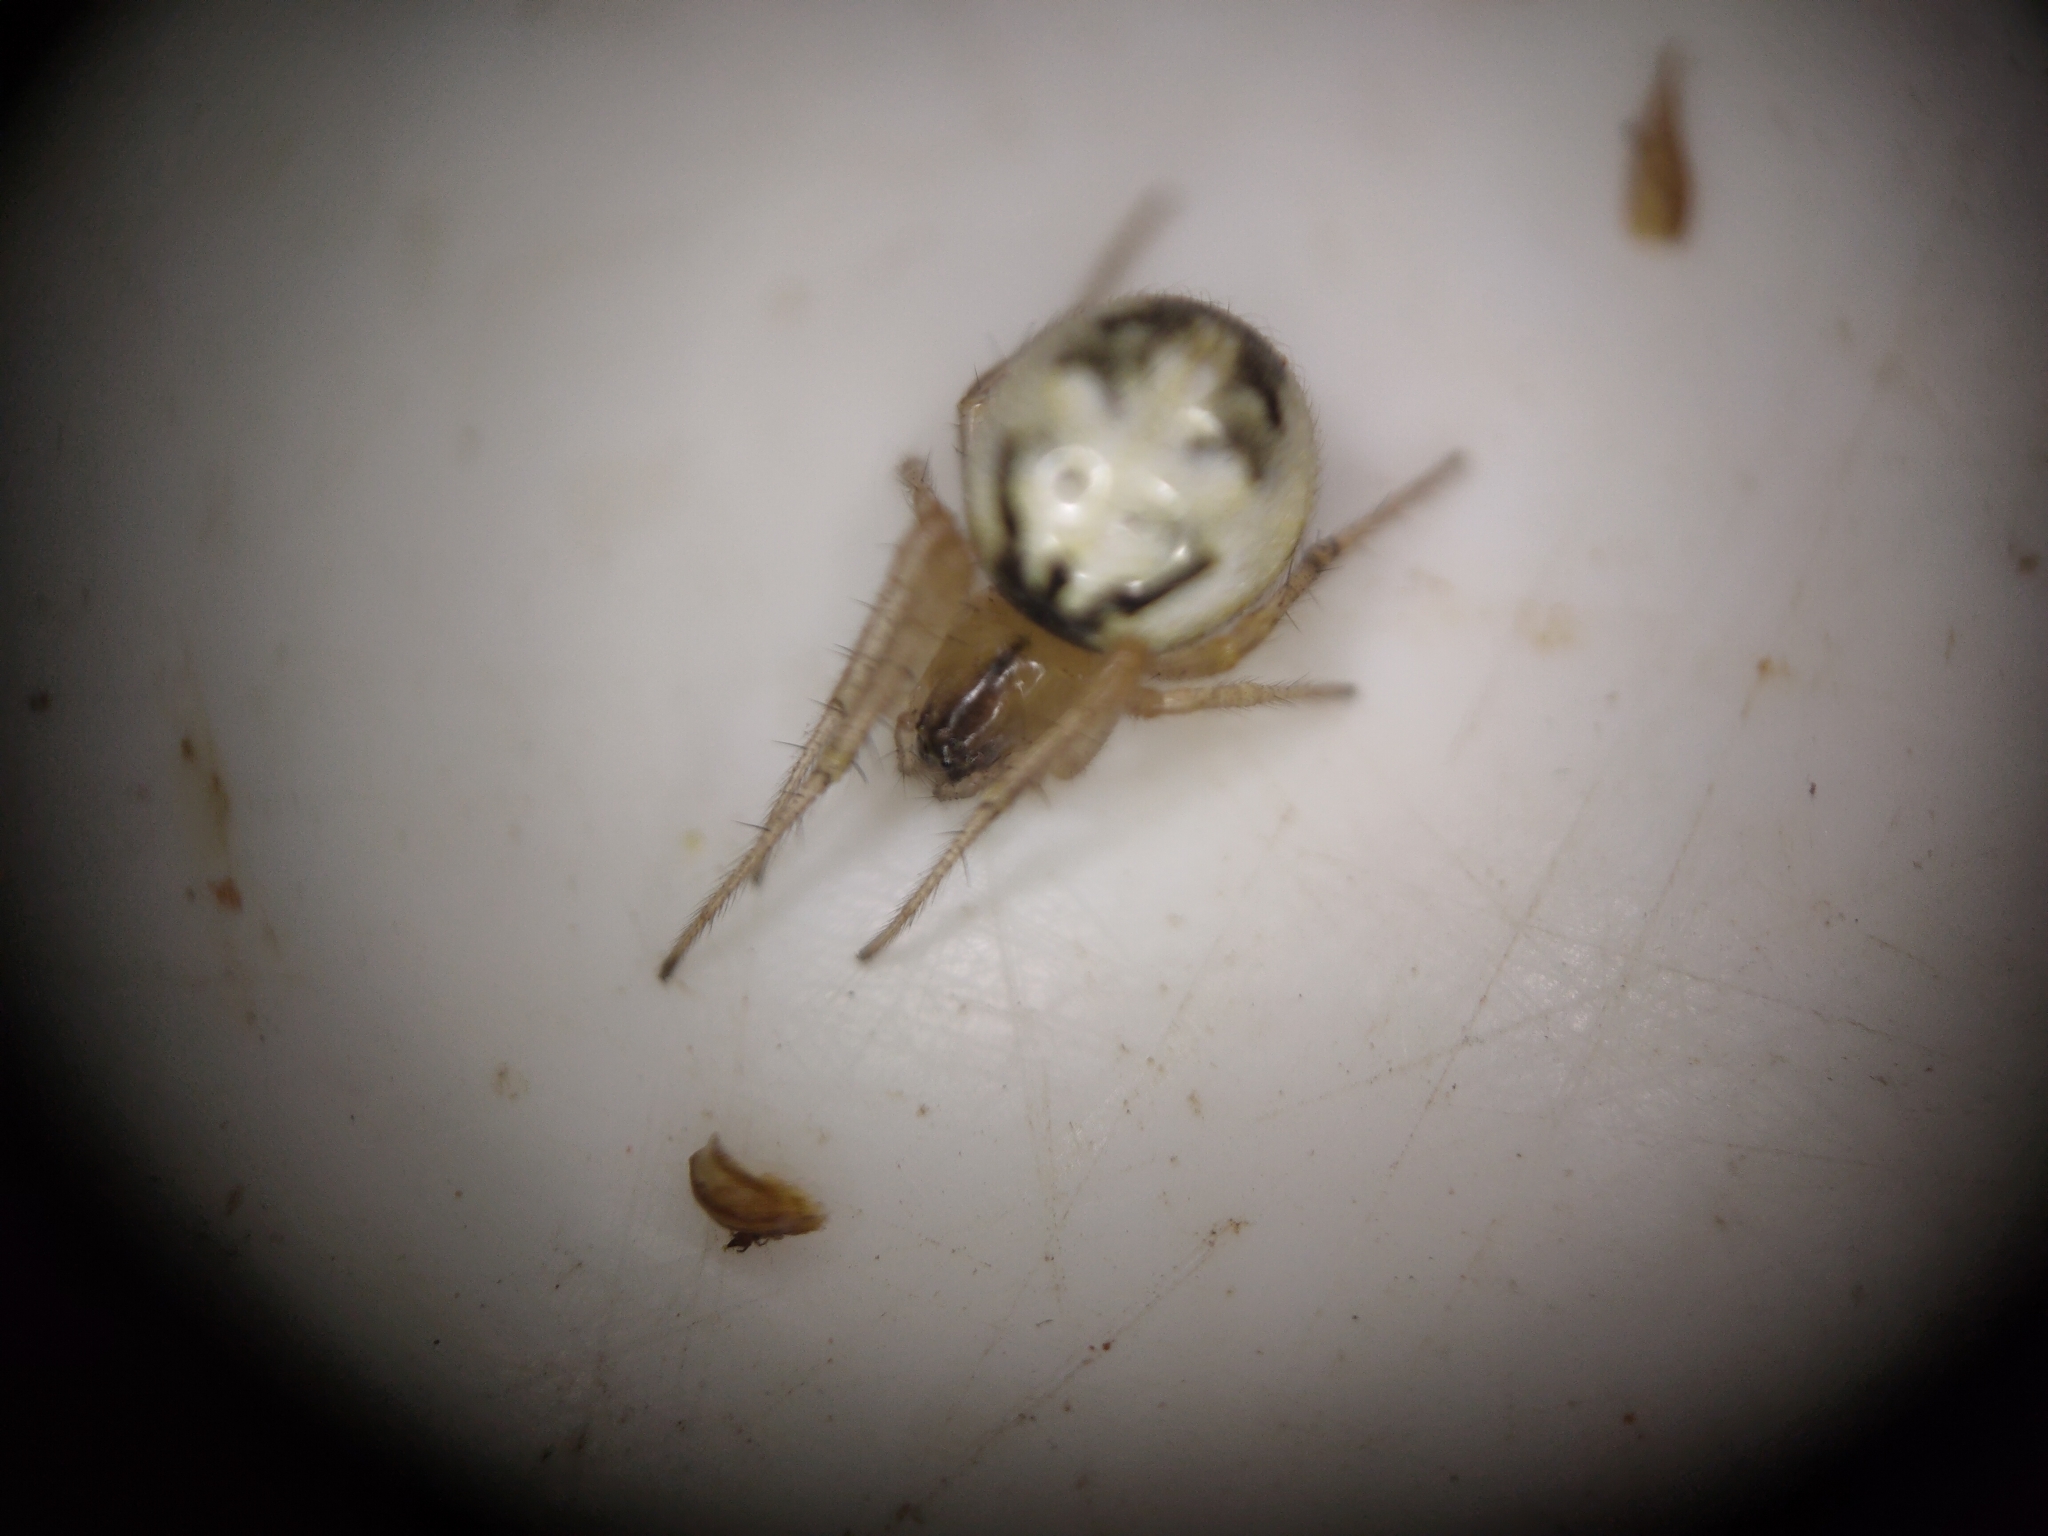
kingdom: Animalia
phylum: Arthropoda
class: Arachnida
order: Araneae
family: Araneidae
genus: Neoscona
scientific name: Neoscona inusta
